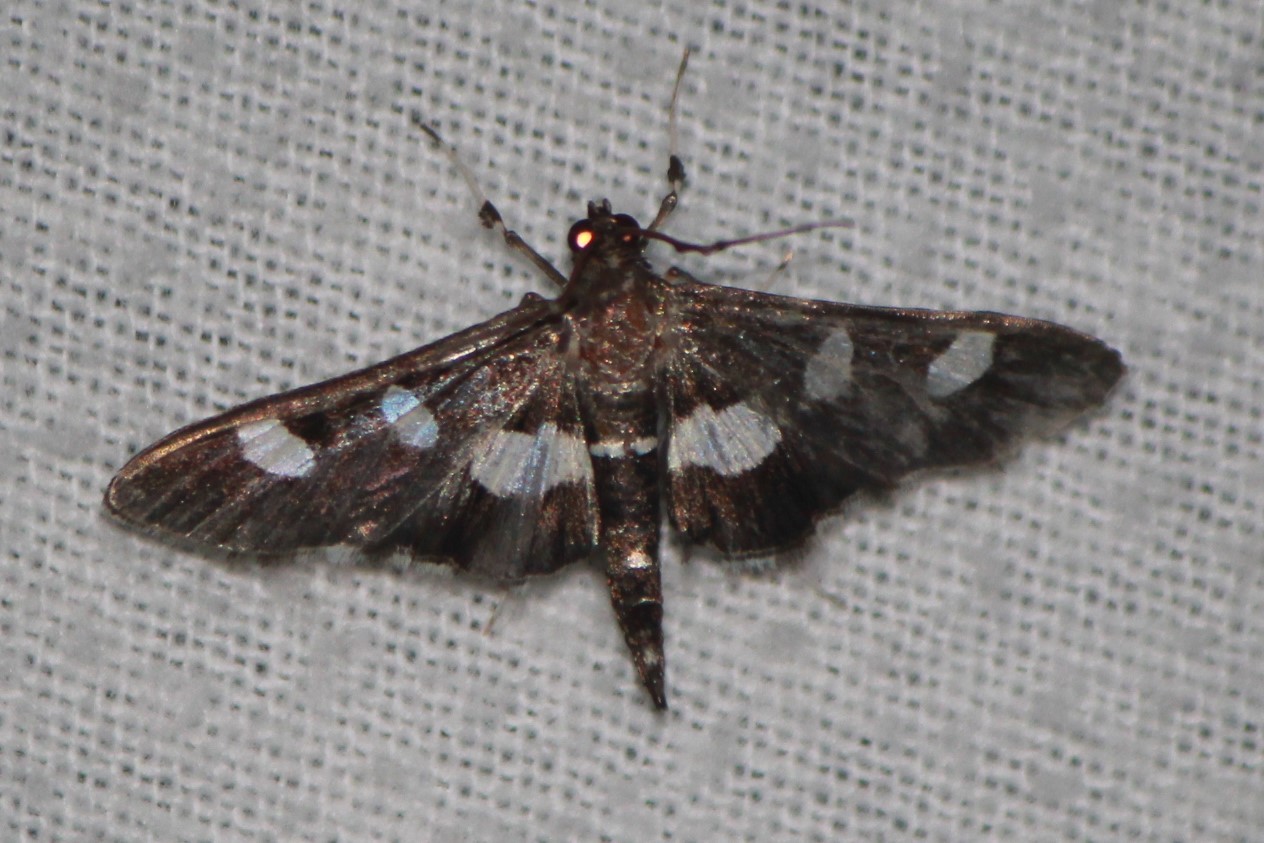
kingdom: Animalia
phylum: Arthropoda
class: Insecta
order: Lepidoptera
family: Crambidae
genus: Desmia
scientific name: Desmia funeralis
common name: Grape leaf folder moth
